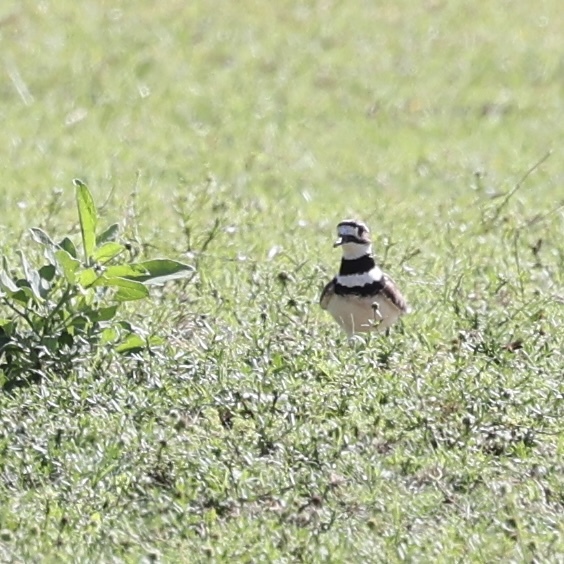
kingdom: Animalia
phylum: Chordata
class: Aves
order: Charadriiformes
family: Charadriidae
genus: Charadrius
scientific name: Charadrius vociferus
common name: Killdeer
